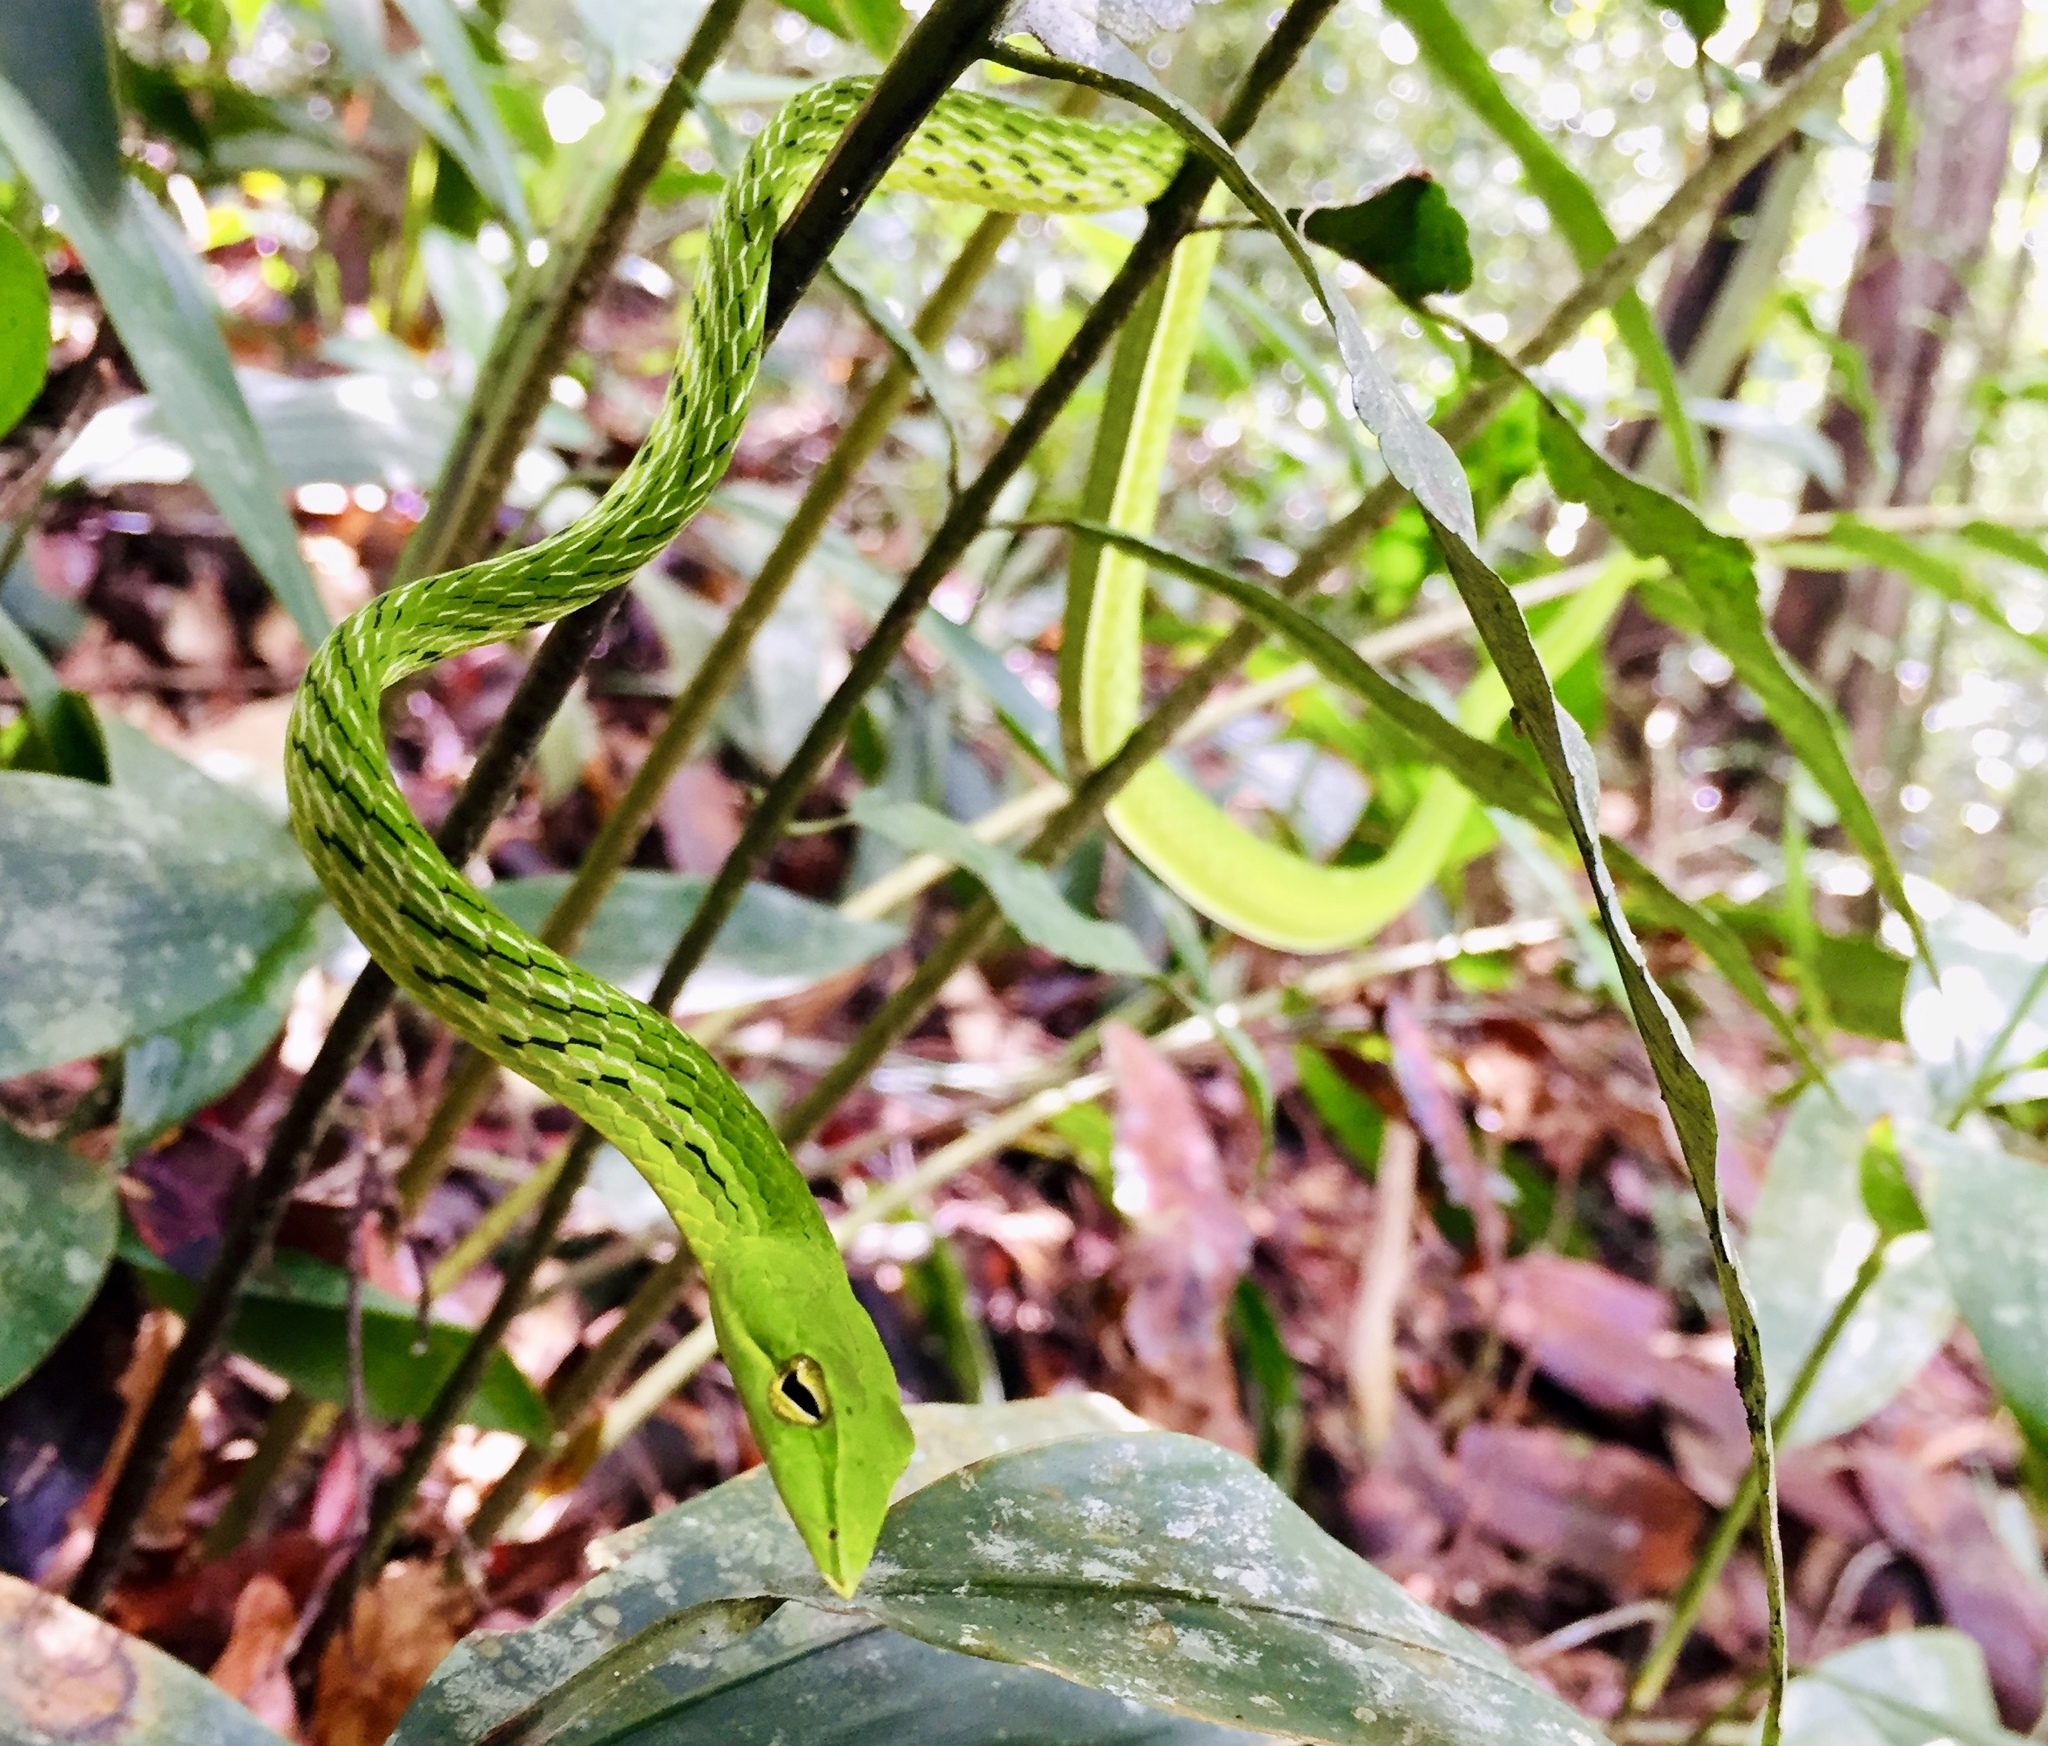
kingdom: Animalia
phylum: Chordata
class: Squamata
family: Colubridae
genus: Ahaetulla
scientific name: Ahaetulla nasuta
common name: Green vine snake
